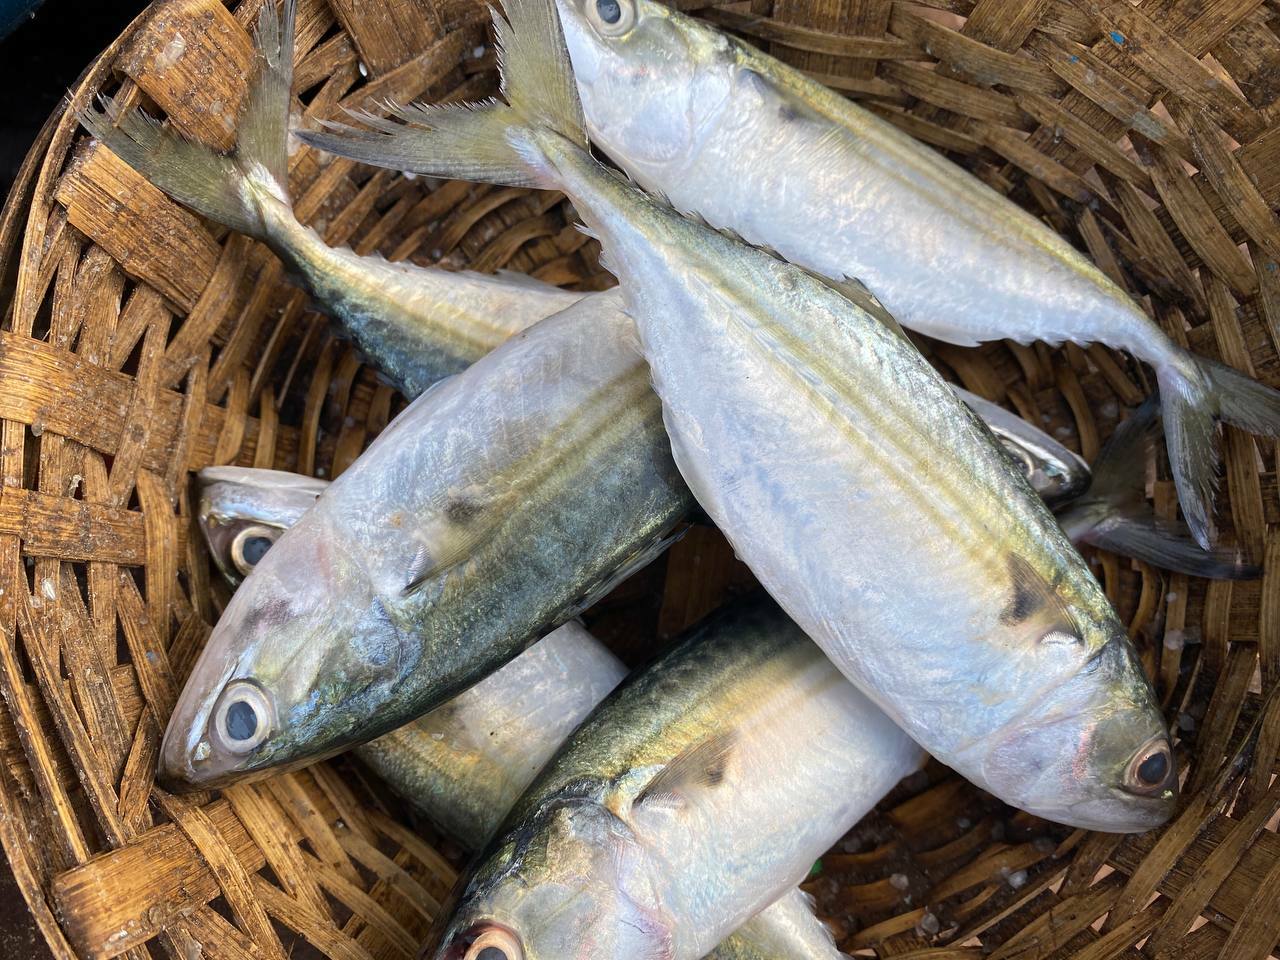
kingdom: Animalia
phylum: Chordata
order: Perciformes
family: Scombridae
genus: Rastrelliger
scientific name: Rastrelliger kanagurta
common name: Indian mackerel
